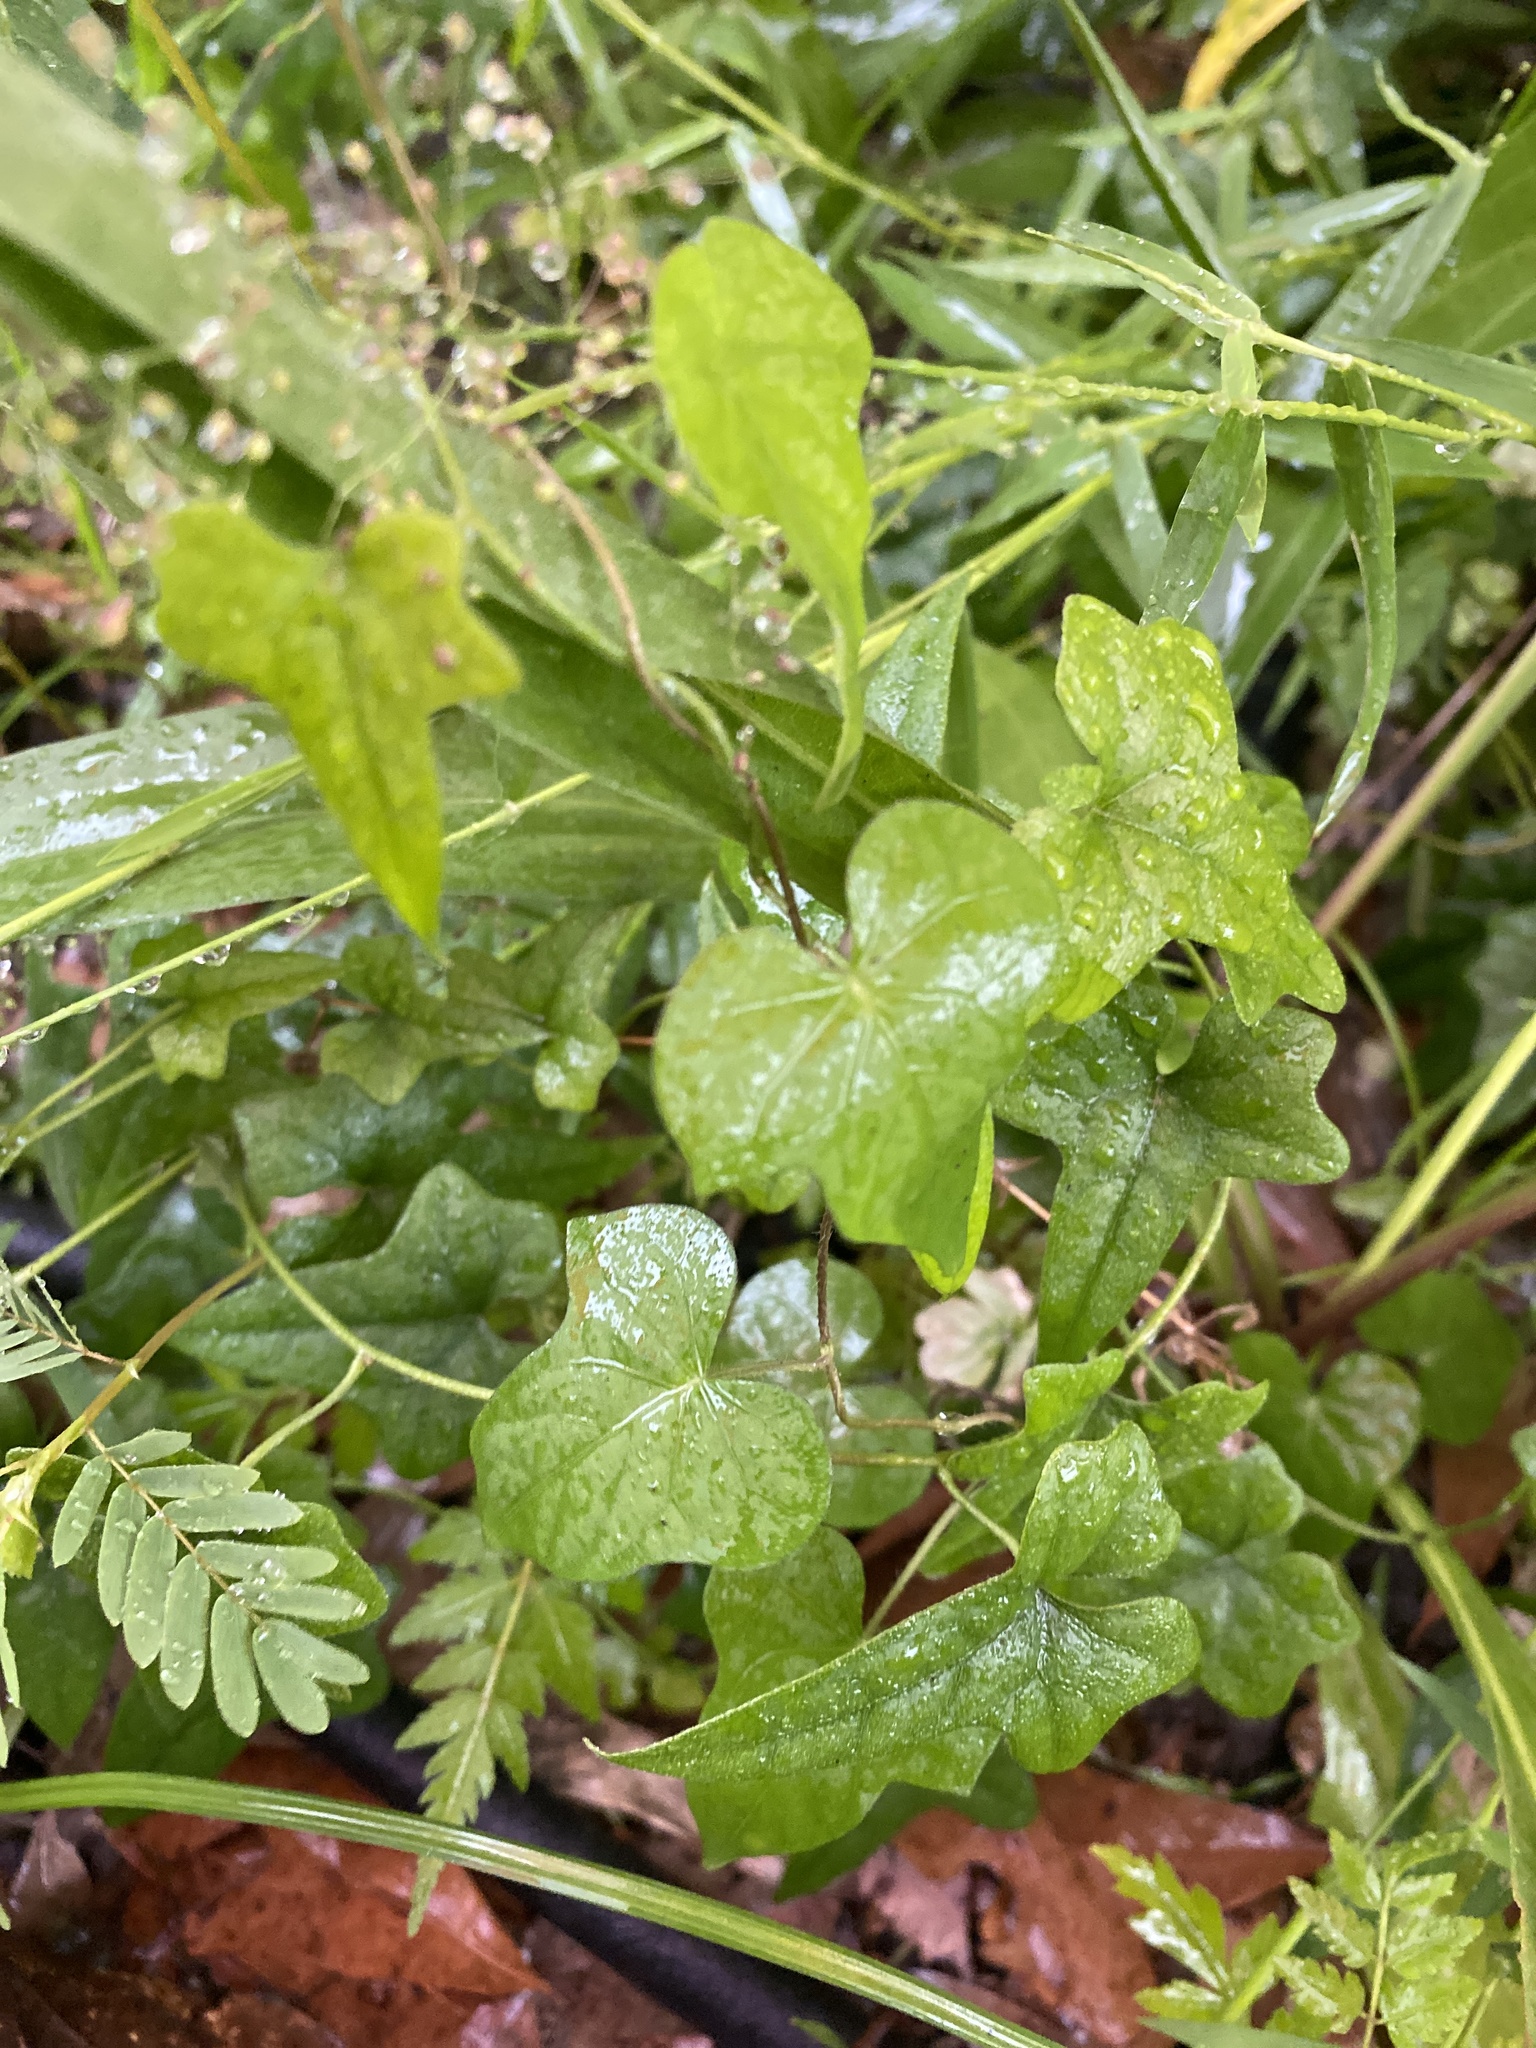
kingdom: Plantae
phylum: Tracheophyta
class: Magnoliopsida
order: Ranunculales
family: Menispermaceae
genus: Cocculus
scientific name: Cocculus carolinus
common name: Carolina moonseed
